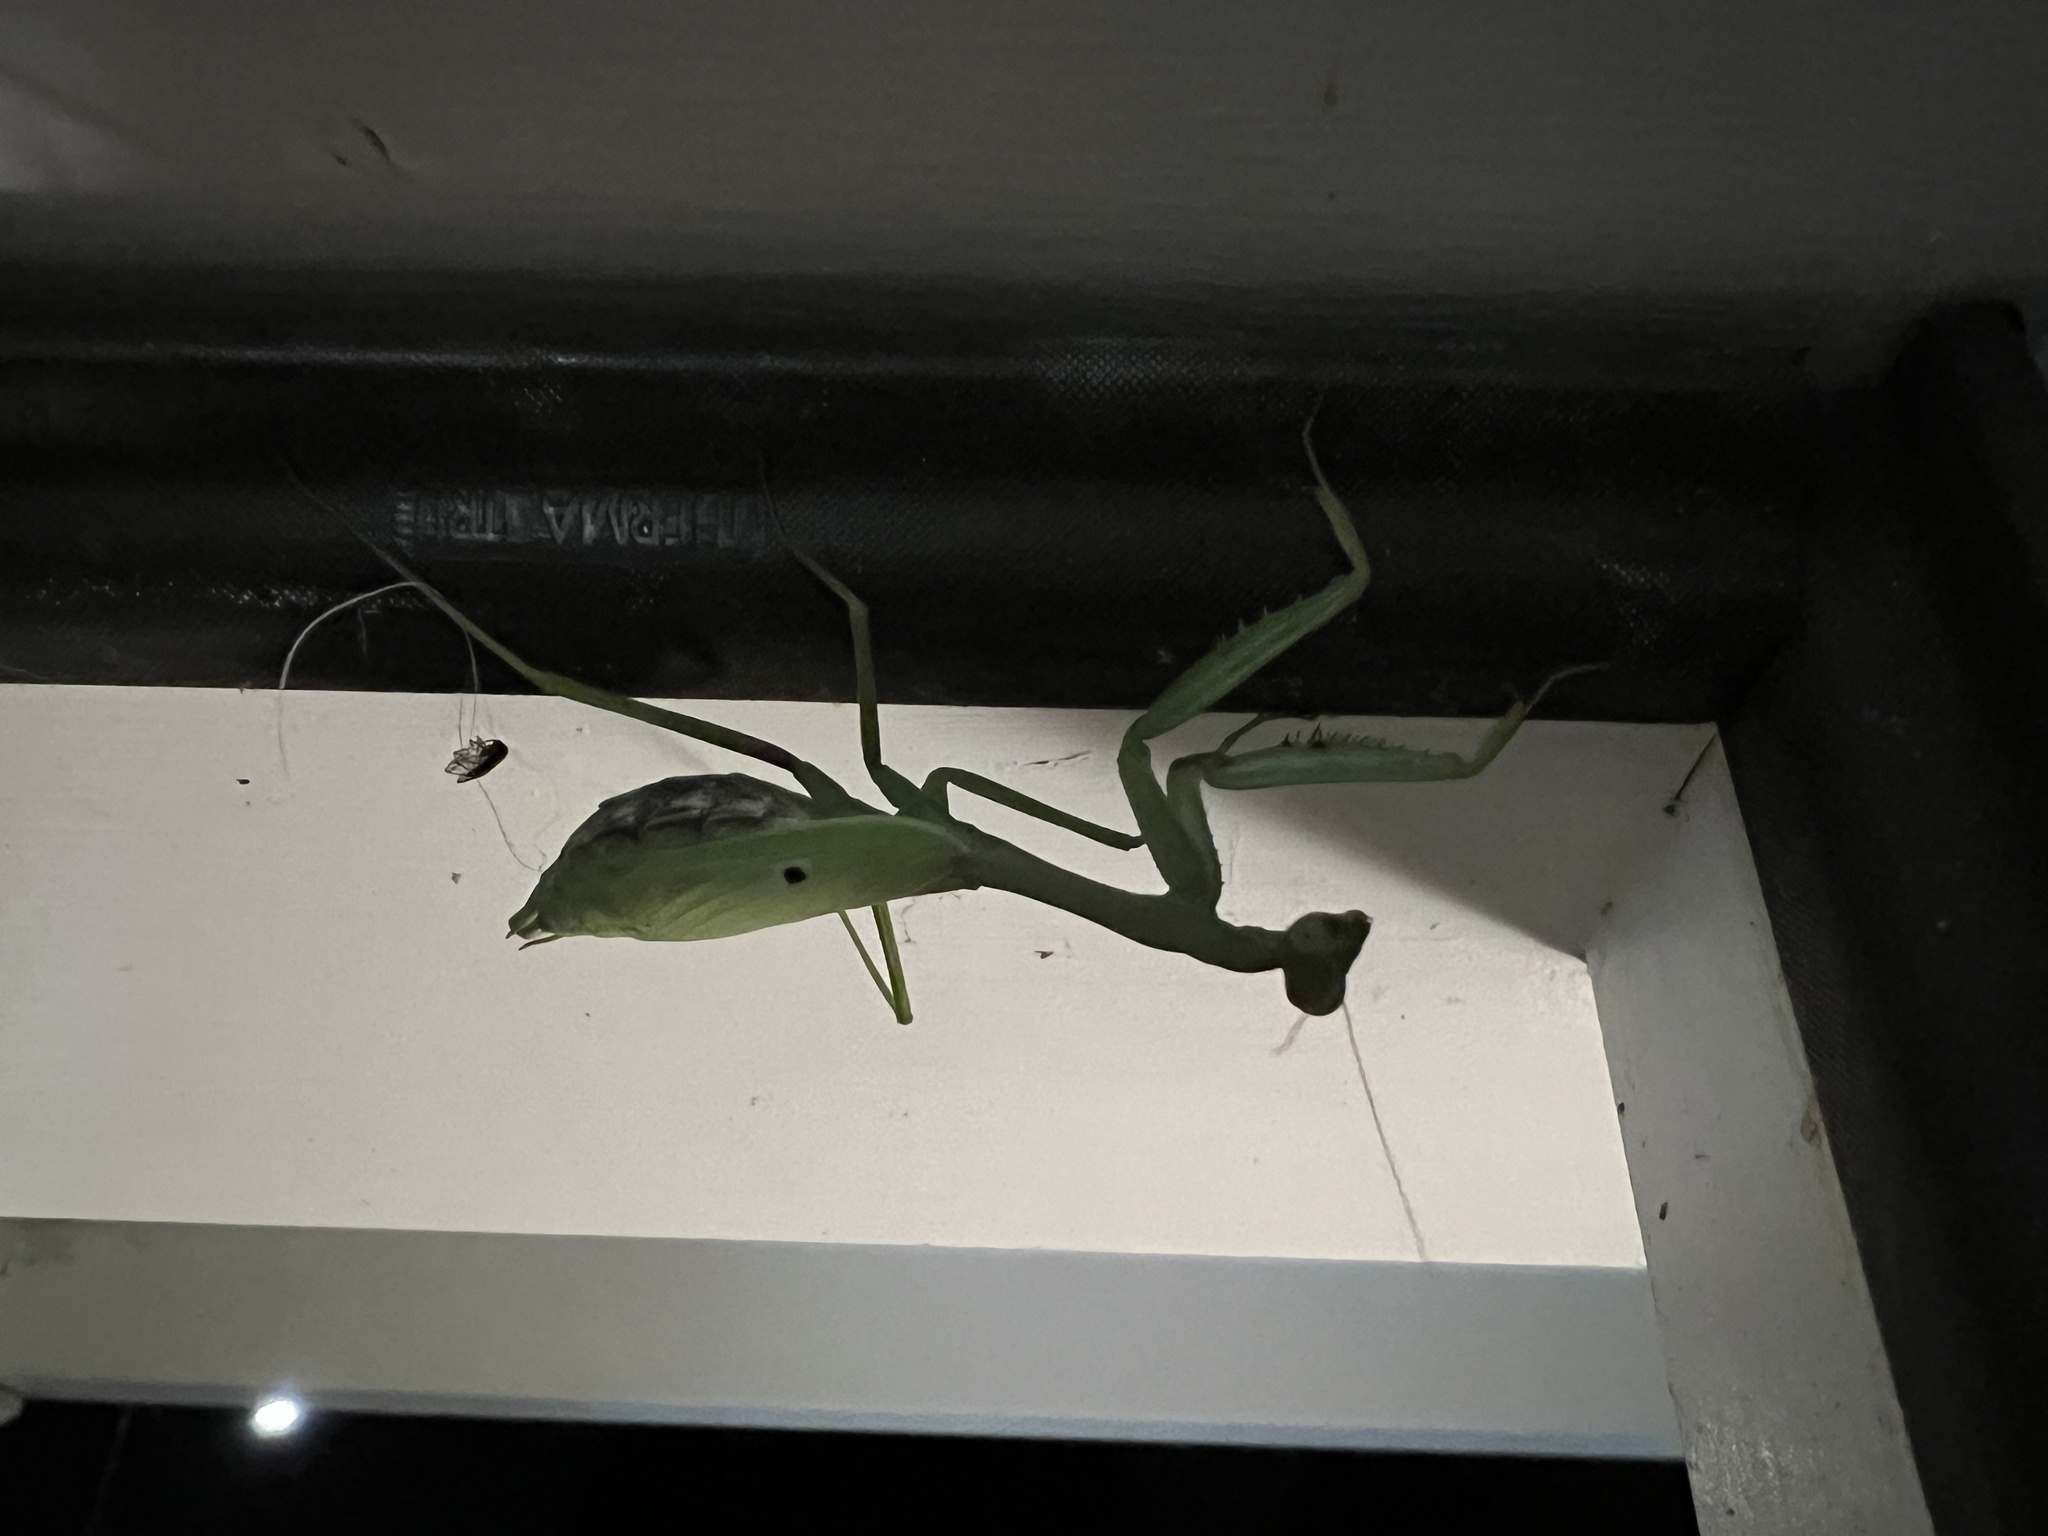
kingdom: Animalia
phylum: Arthropoda
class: Insecta
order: Mantodea
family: Mantidae
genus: Stagmomantis
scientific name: Stagmomantis carolina
